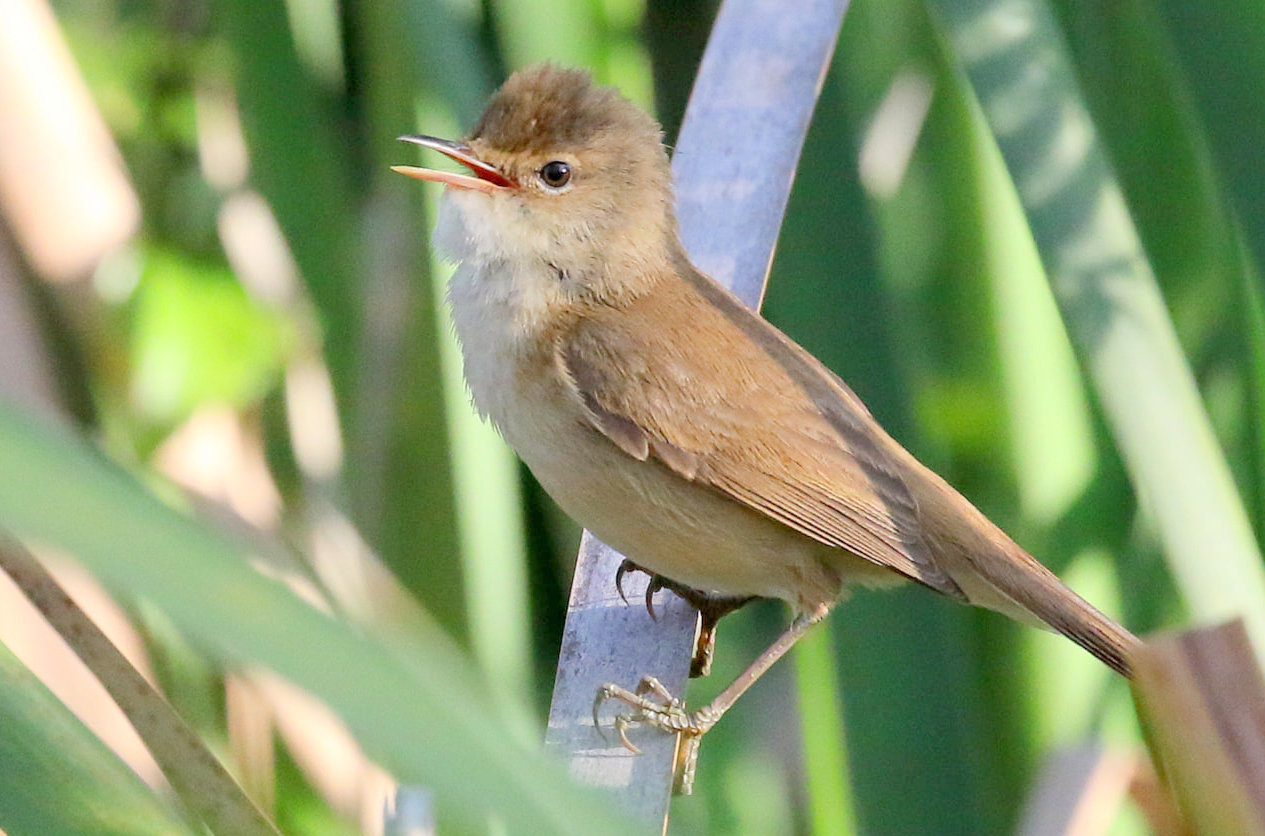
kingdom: Animalia
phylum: Chordata
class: Aves
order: Passeriformes
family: Acrocephalidae
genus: Acrocephalus
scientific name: Acrocephalus scirpaceus
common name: Eurasian reed warbler
